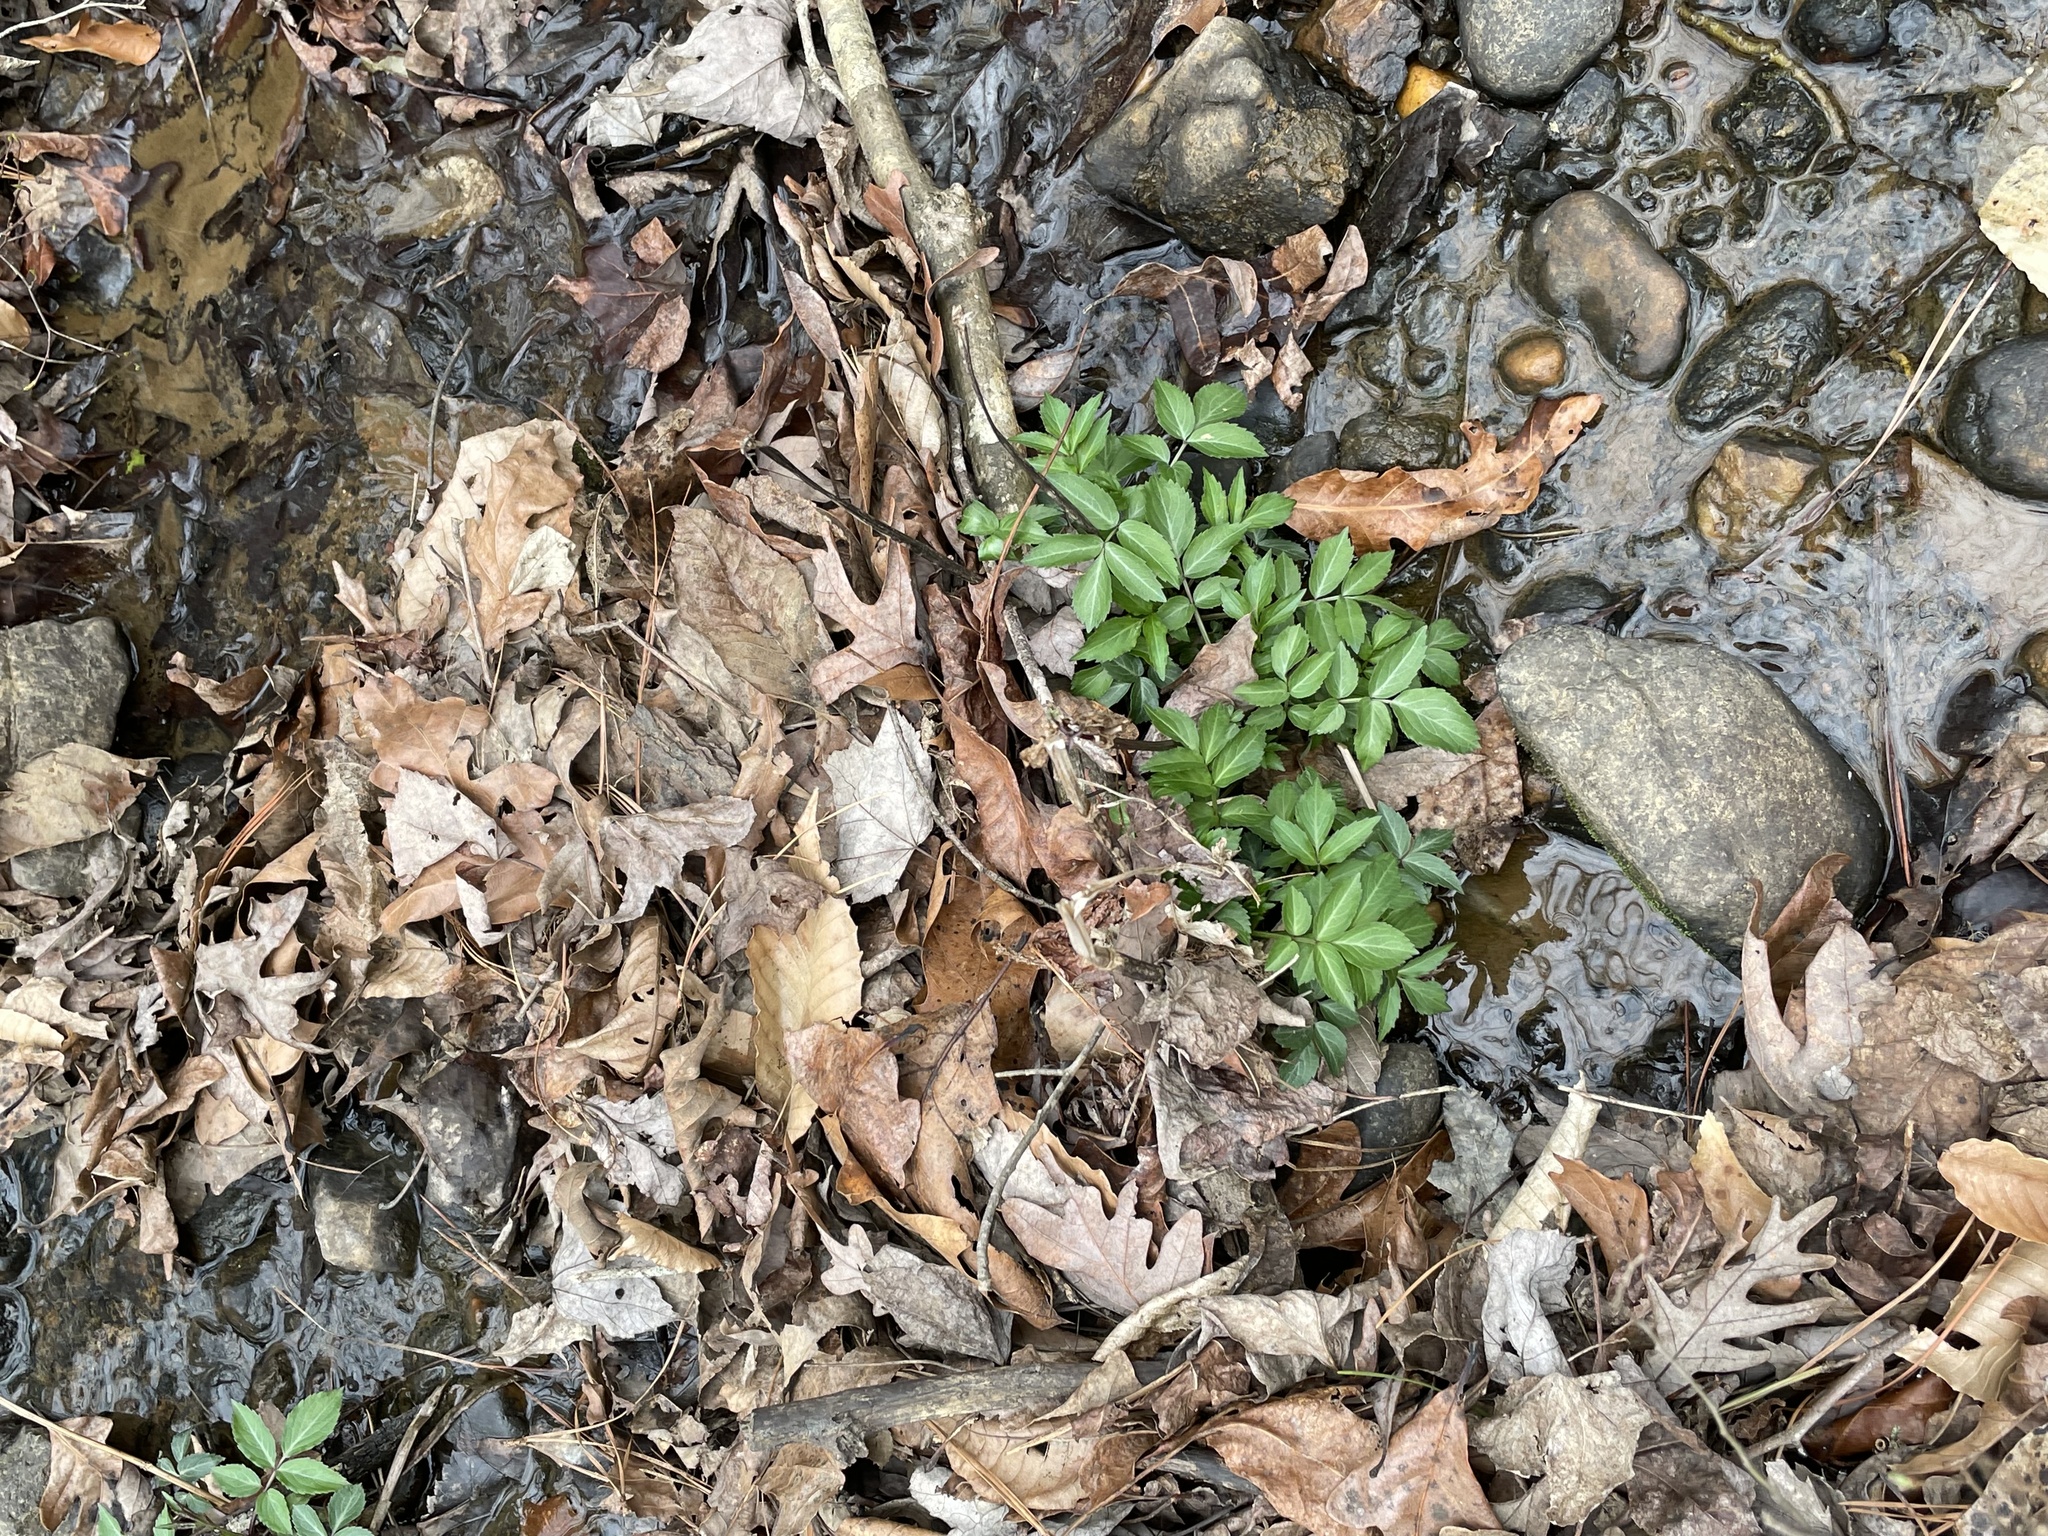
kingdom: Plantae
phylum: Tracheophyta
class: Magnoliopsida
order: Dipsacales
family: Viburnaceae
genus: Sambucus
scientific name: Sambucus canadensis
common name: American elder
